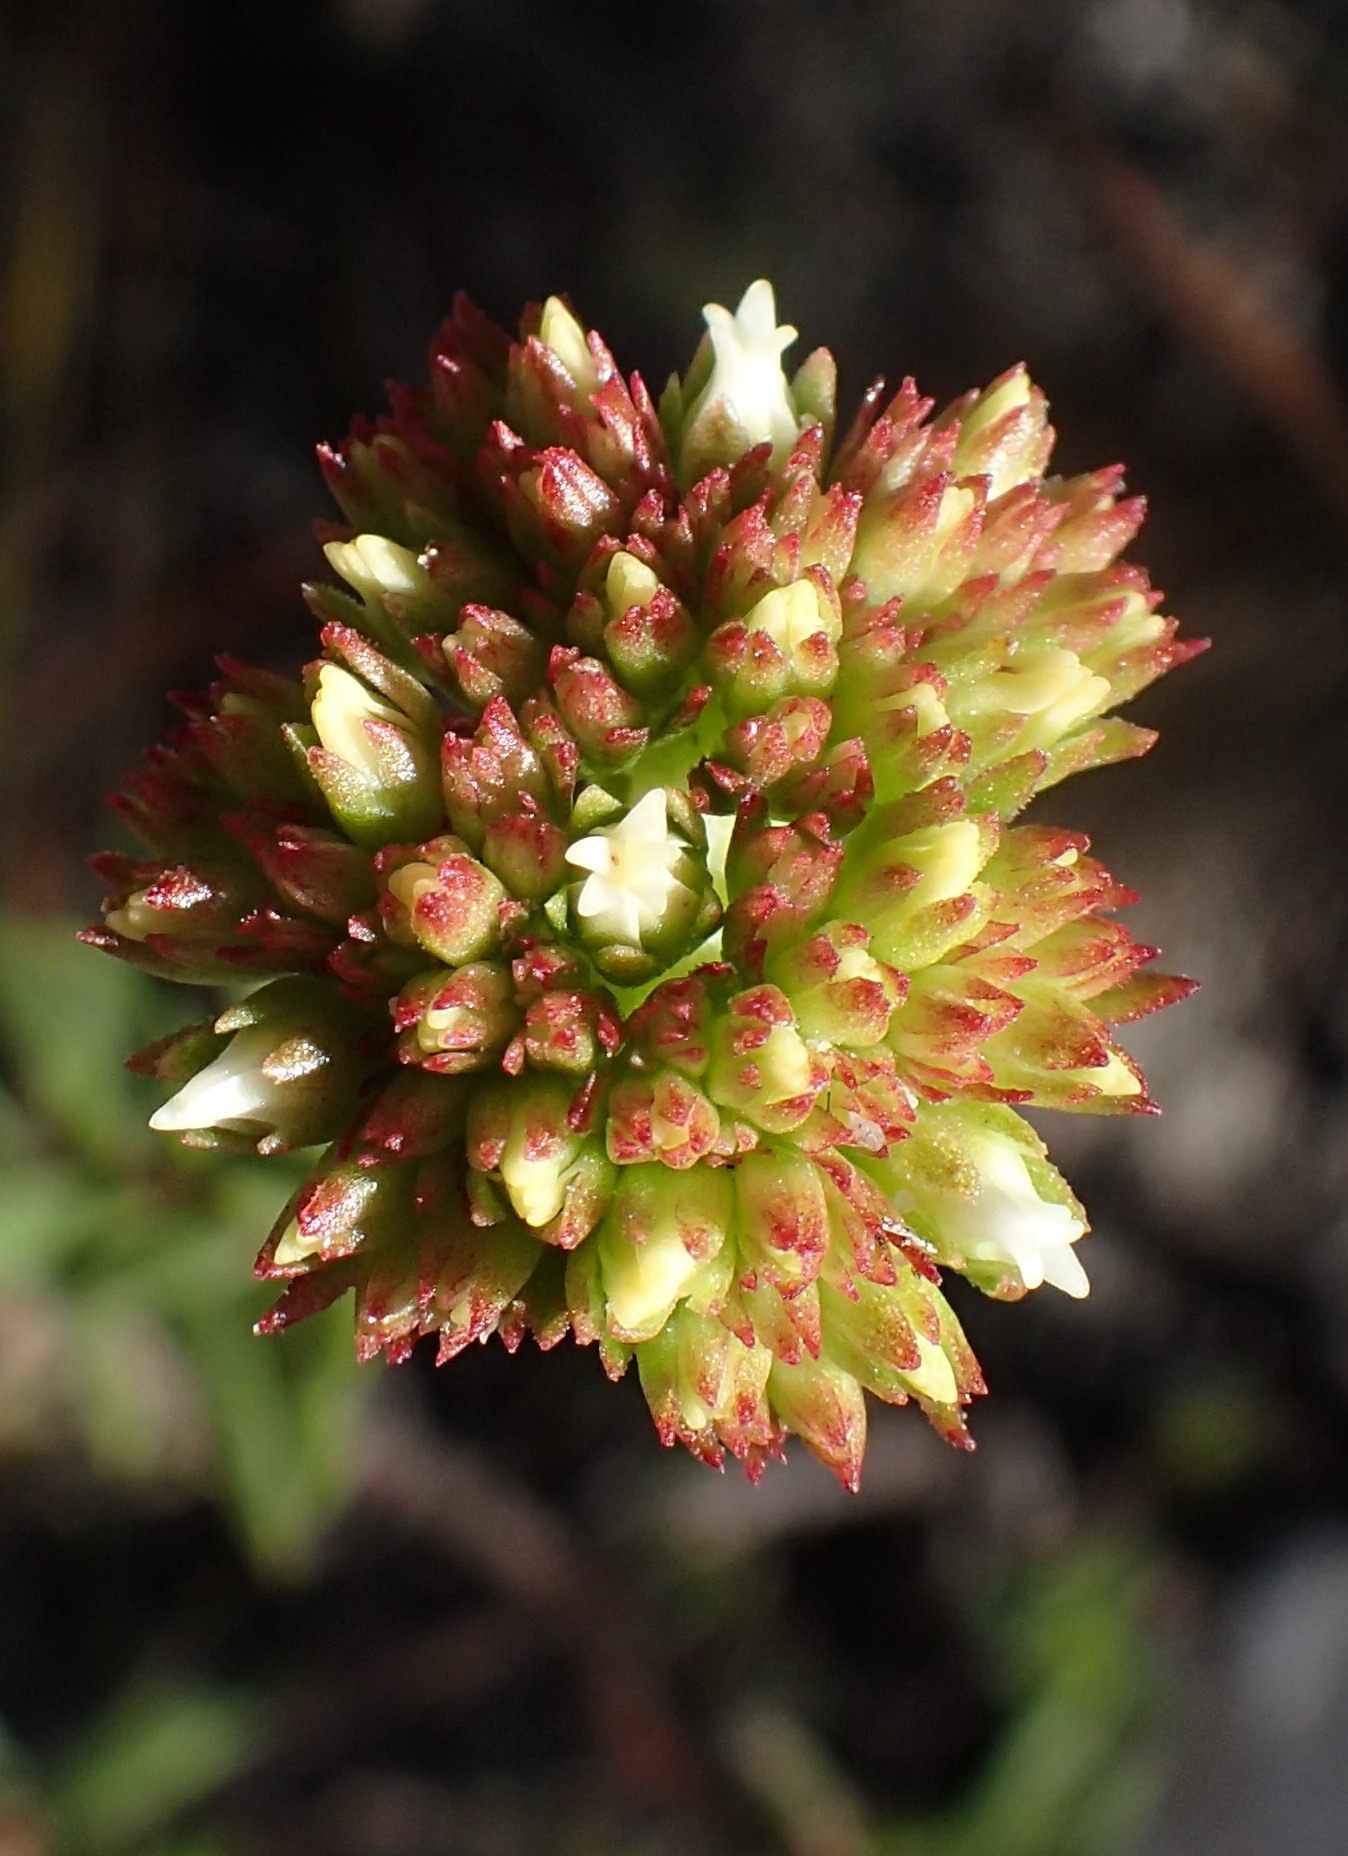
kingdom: Plantae
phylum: Tracheophyta
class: Magnoliopsida
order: Saxifragales
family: Crassulaceae
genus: Crassula
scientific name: Crassula subulata
